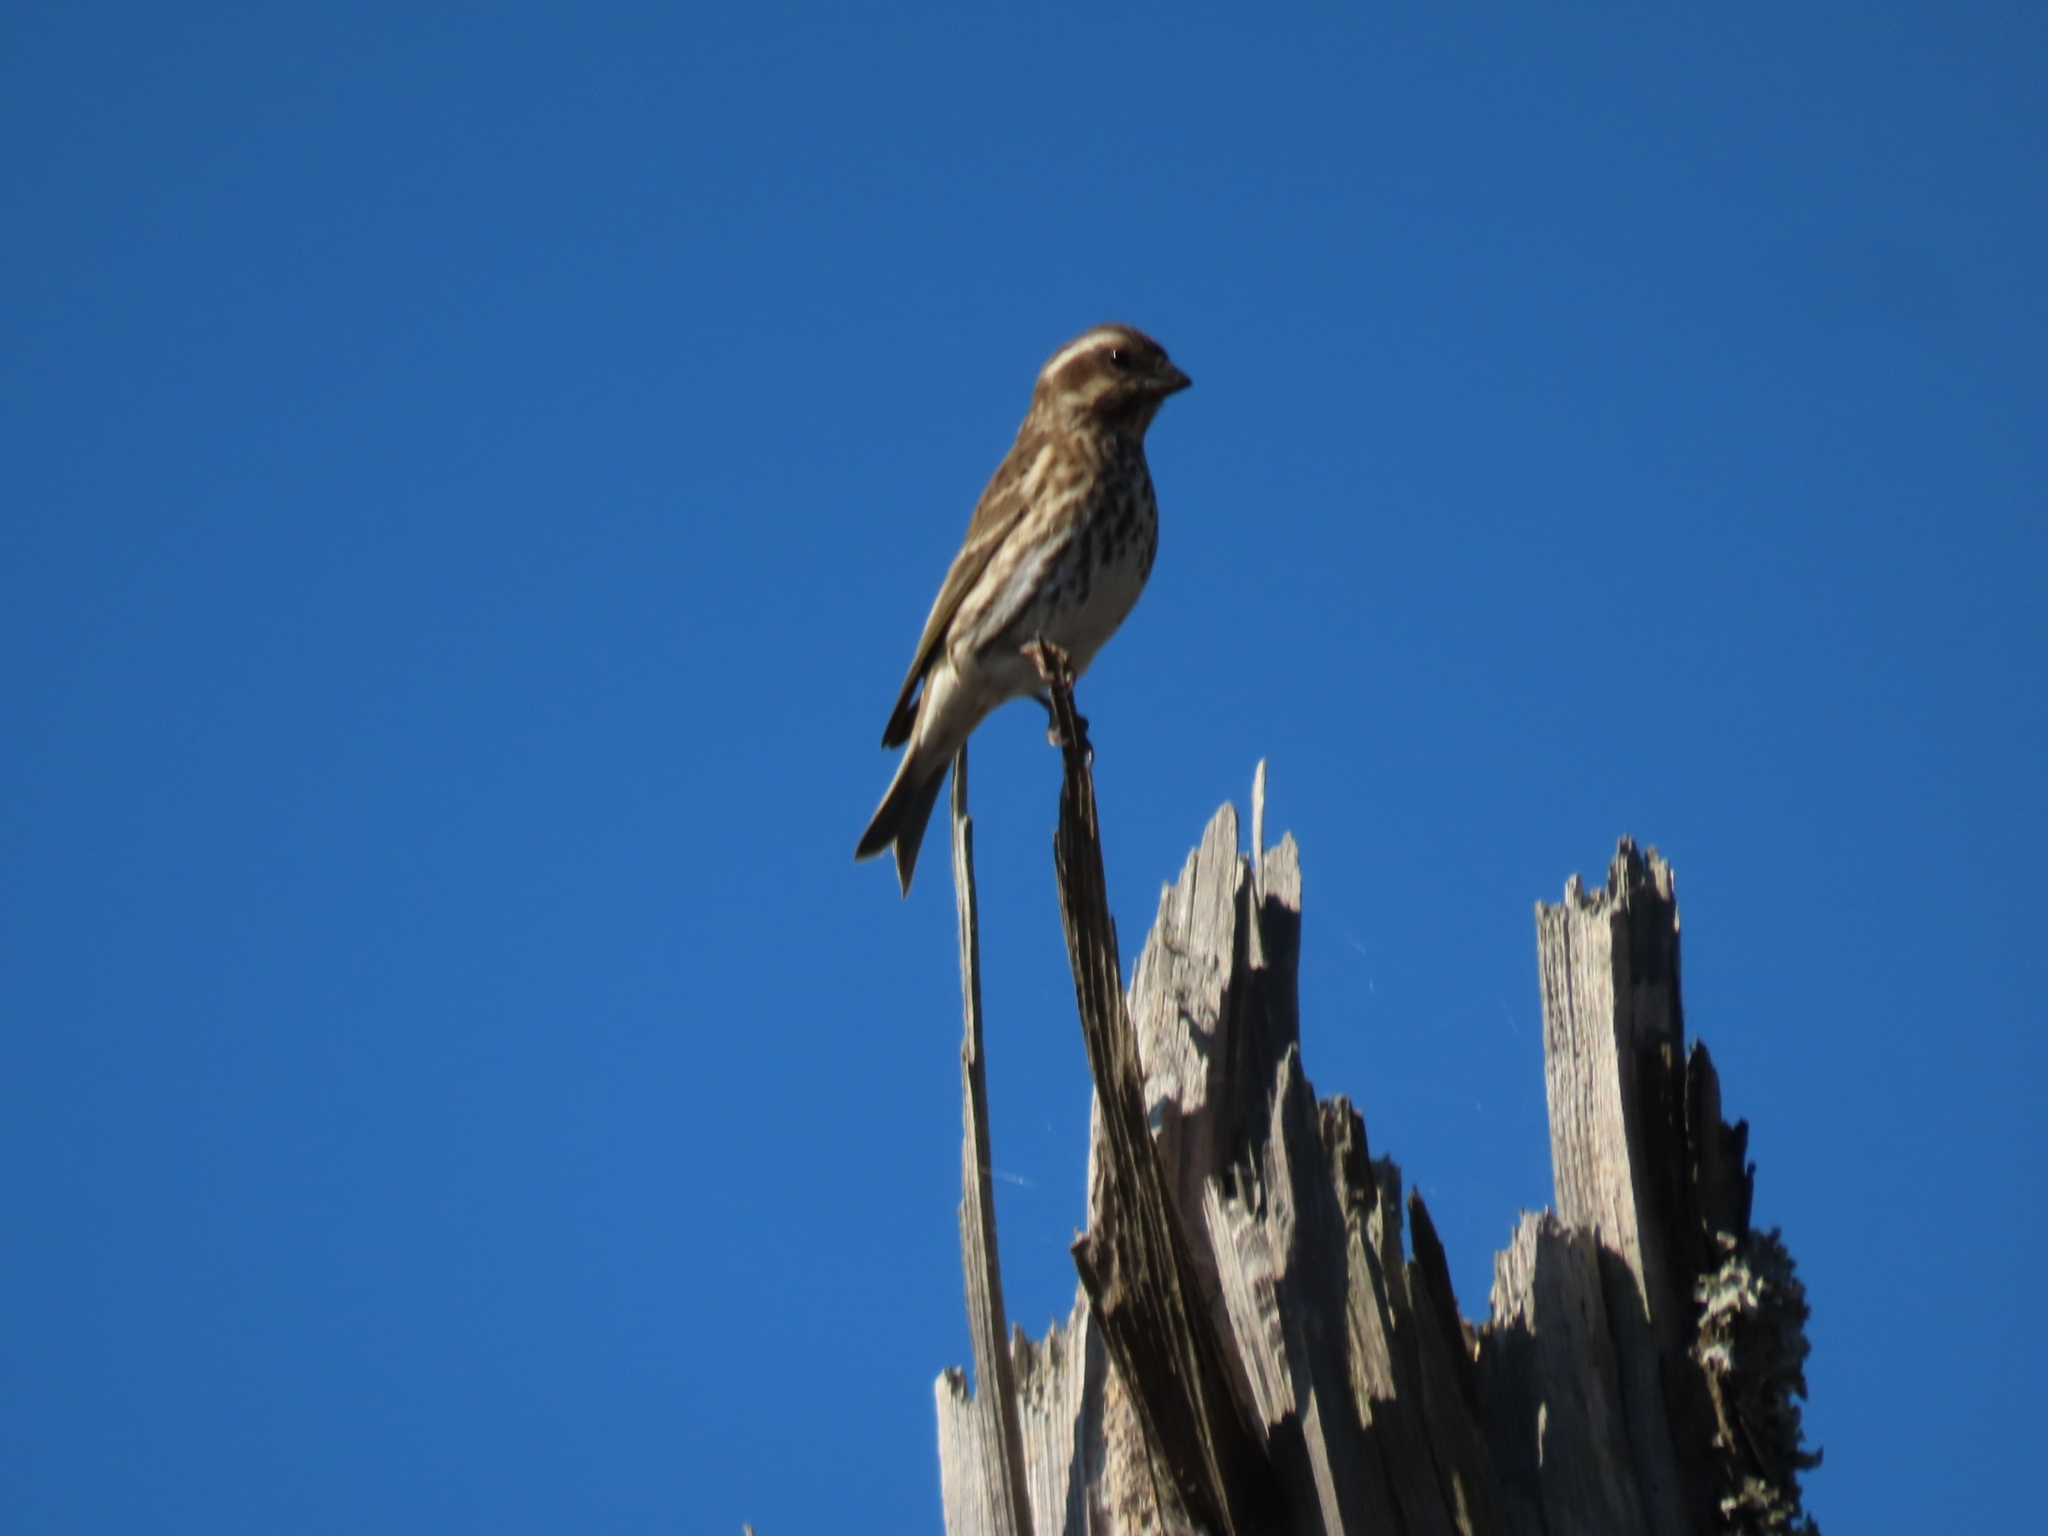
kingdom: Animalia
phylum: Chordata
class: Aves
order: Passeriformes
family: Fringillidae
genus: Haemorhous
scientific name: Haemorhous purpureus
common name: Purple finch
